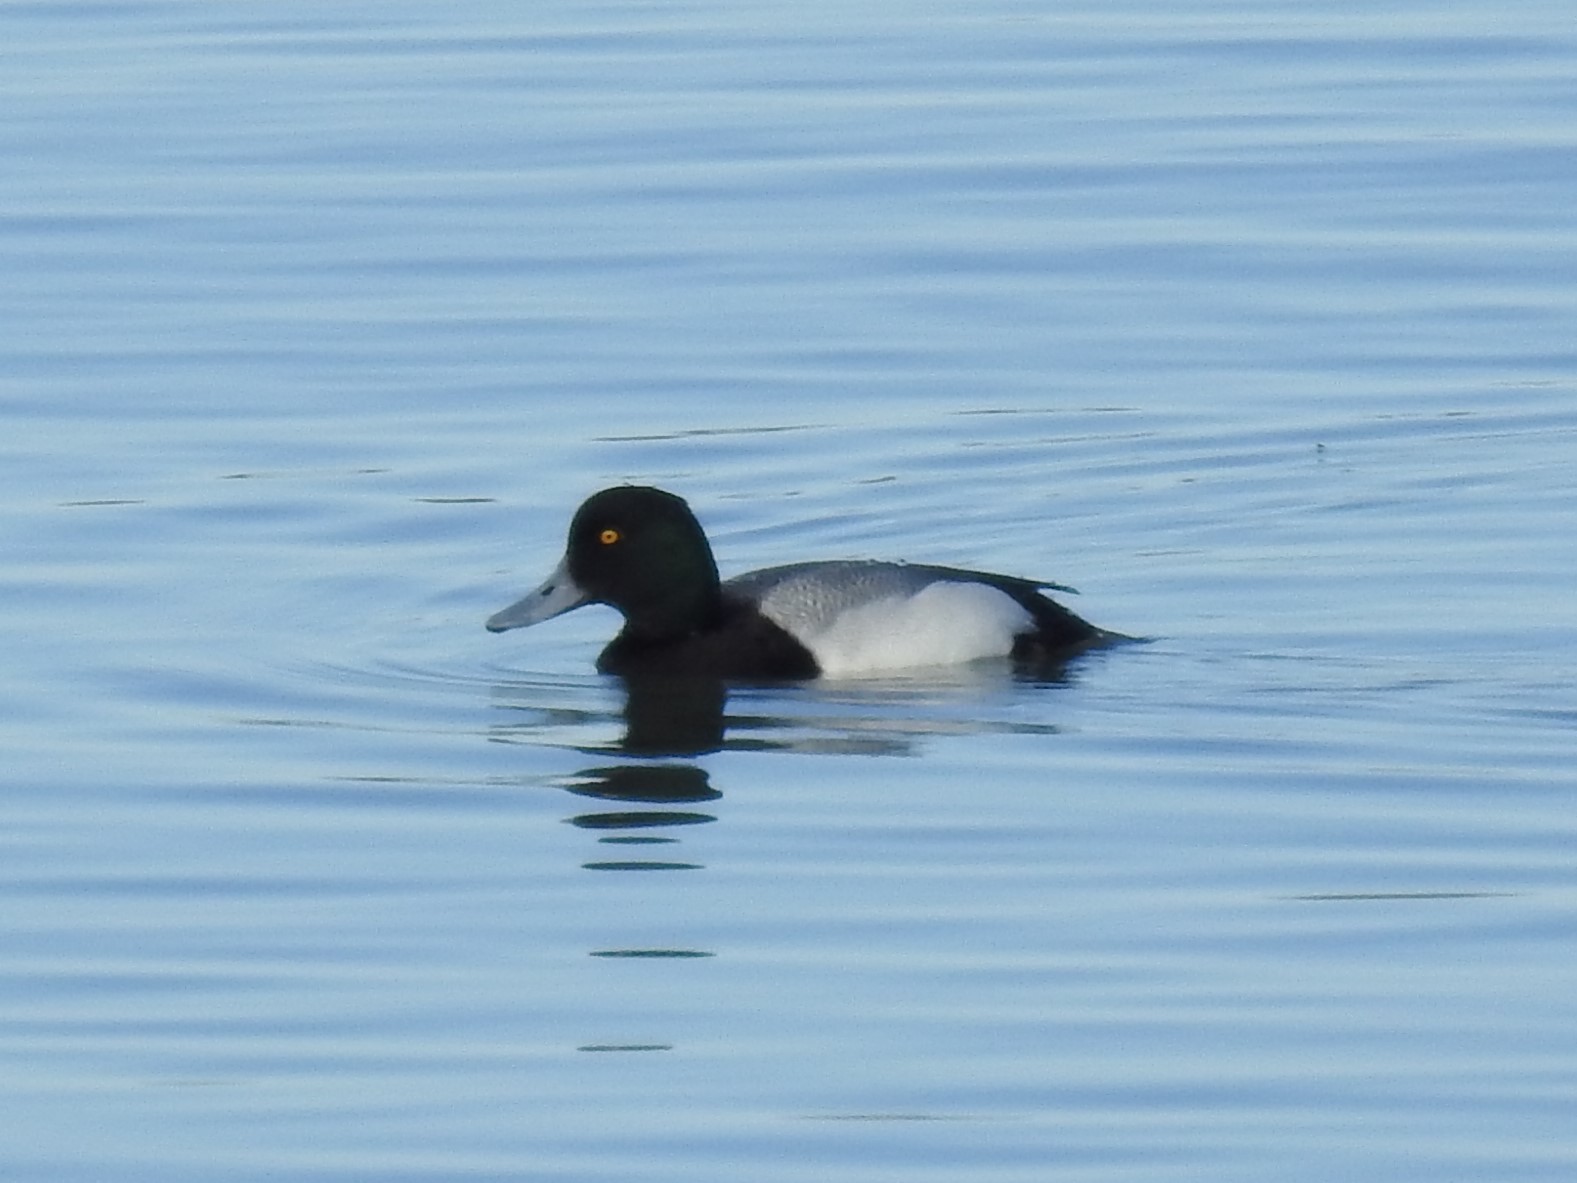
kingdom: Animalia
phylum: Chordata
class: Aves
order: Anseriformes
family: Anatidae
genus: Aythya
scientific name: Aythya affinis
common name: Lesser scaup
